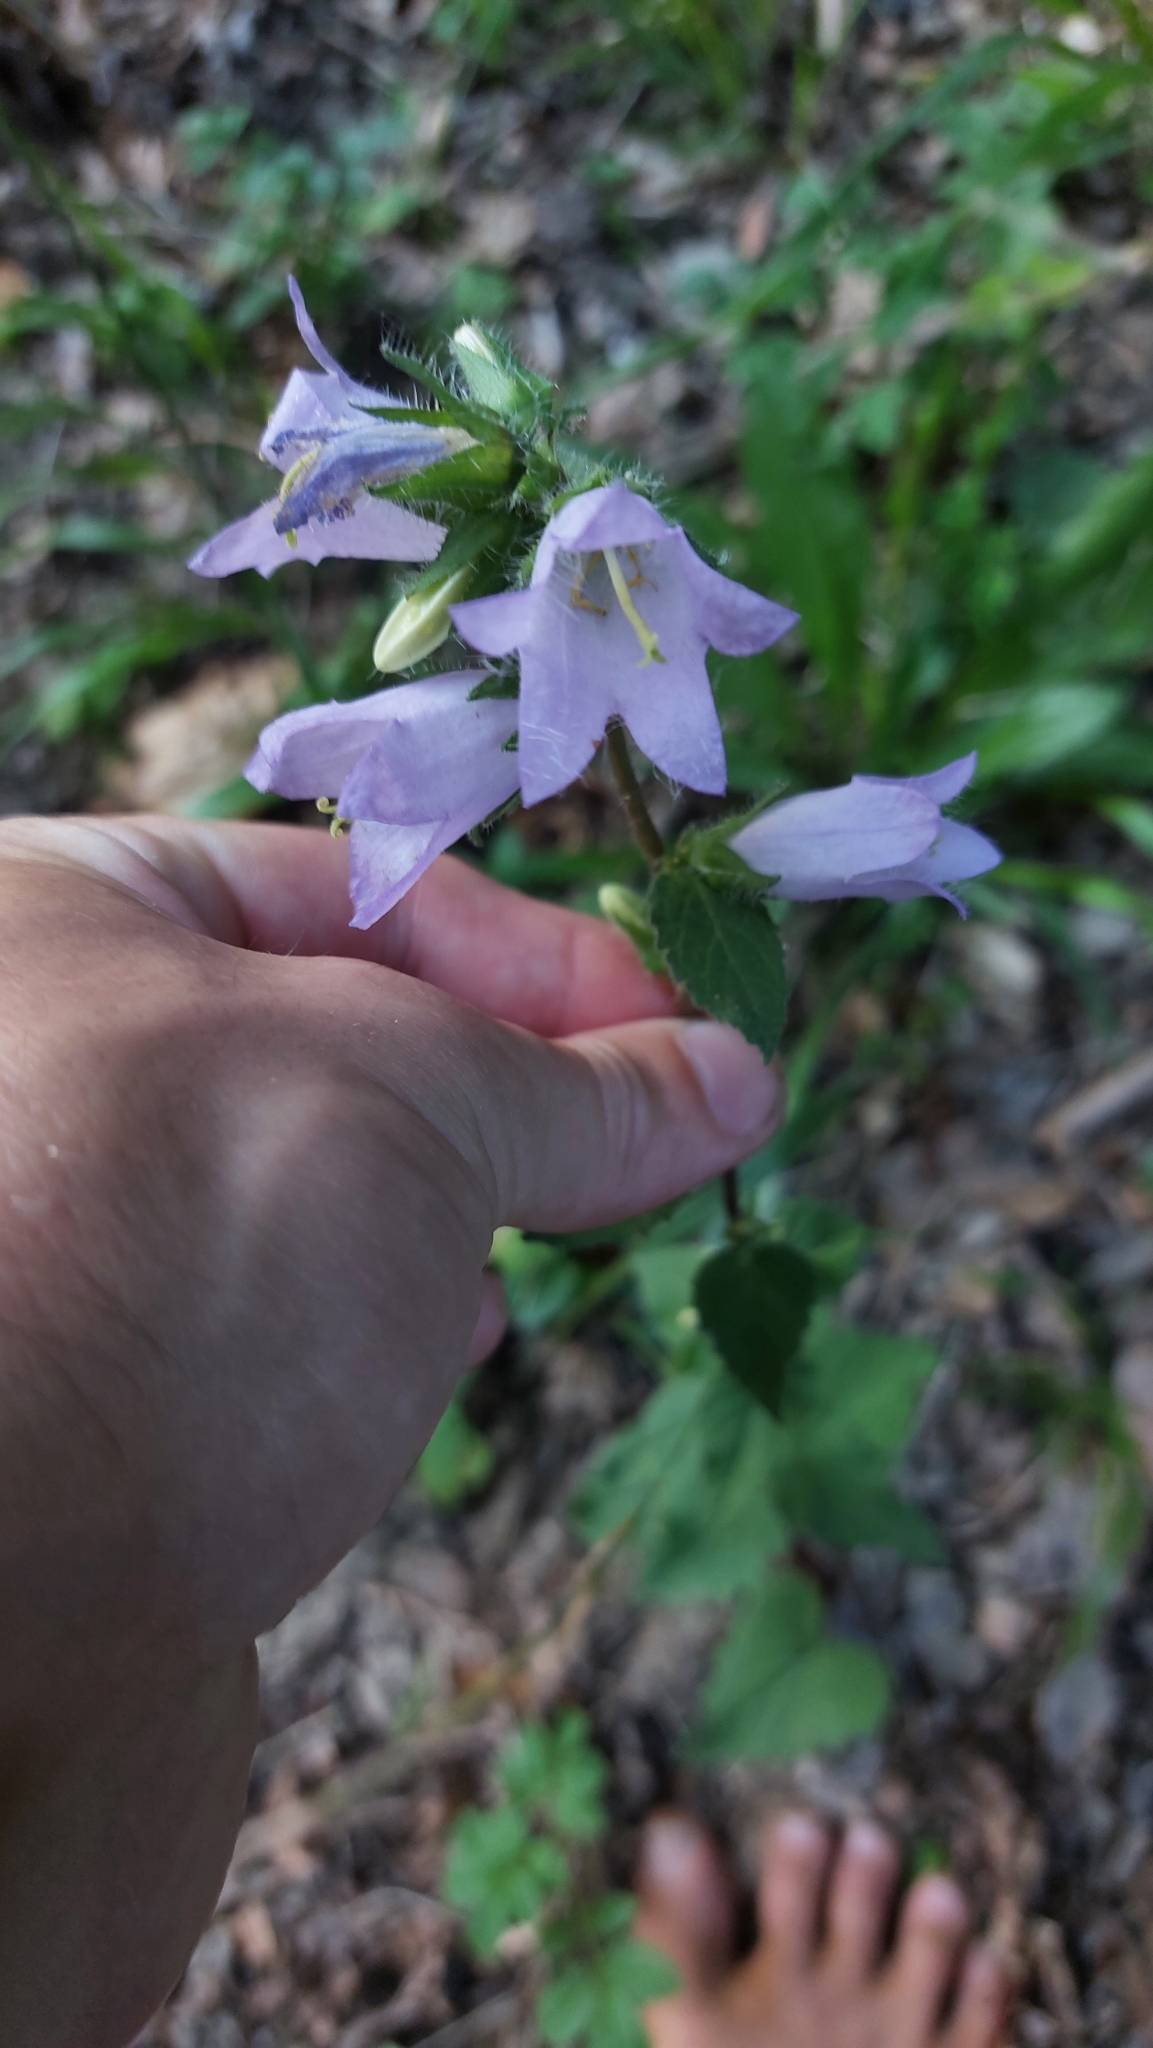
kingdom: Plantae
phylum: Tracheophyta
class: Magnoliopsida
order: Asterales
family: Campanulaceae
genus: Campanula
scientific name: Campanula trachelium
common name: Nettle-leaved bellflower
